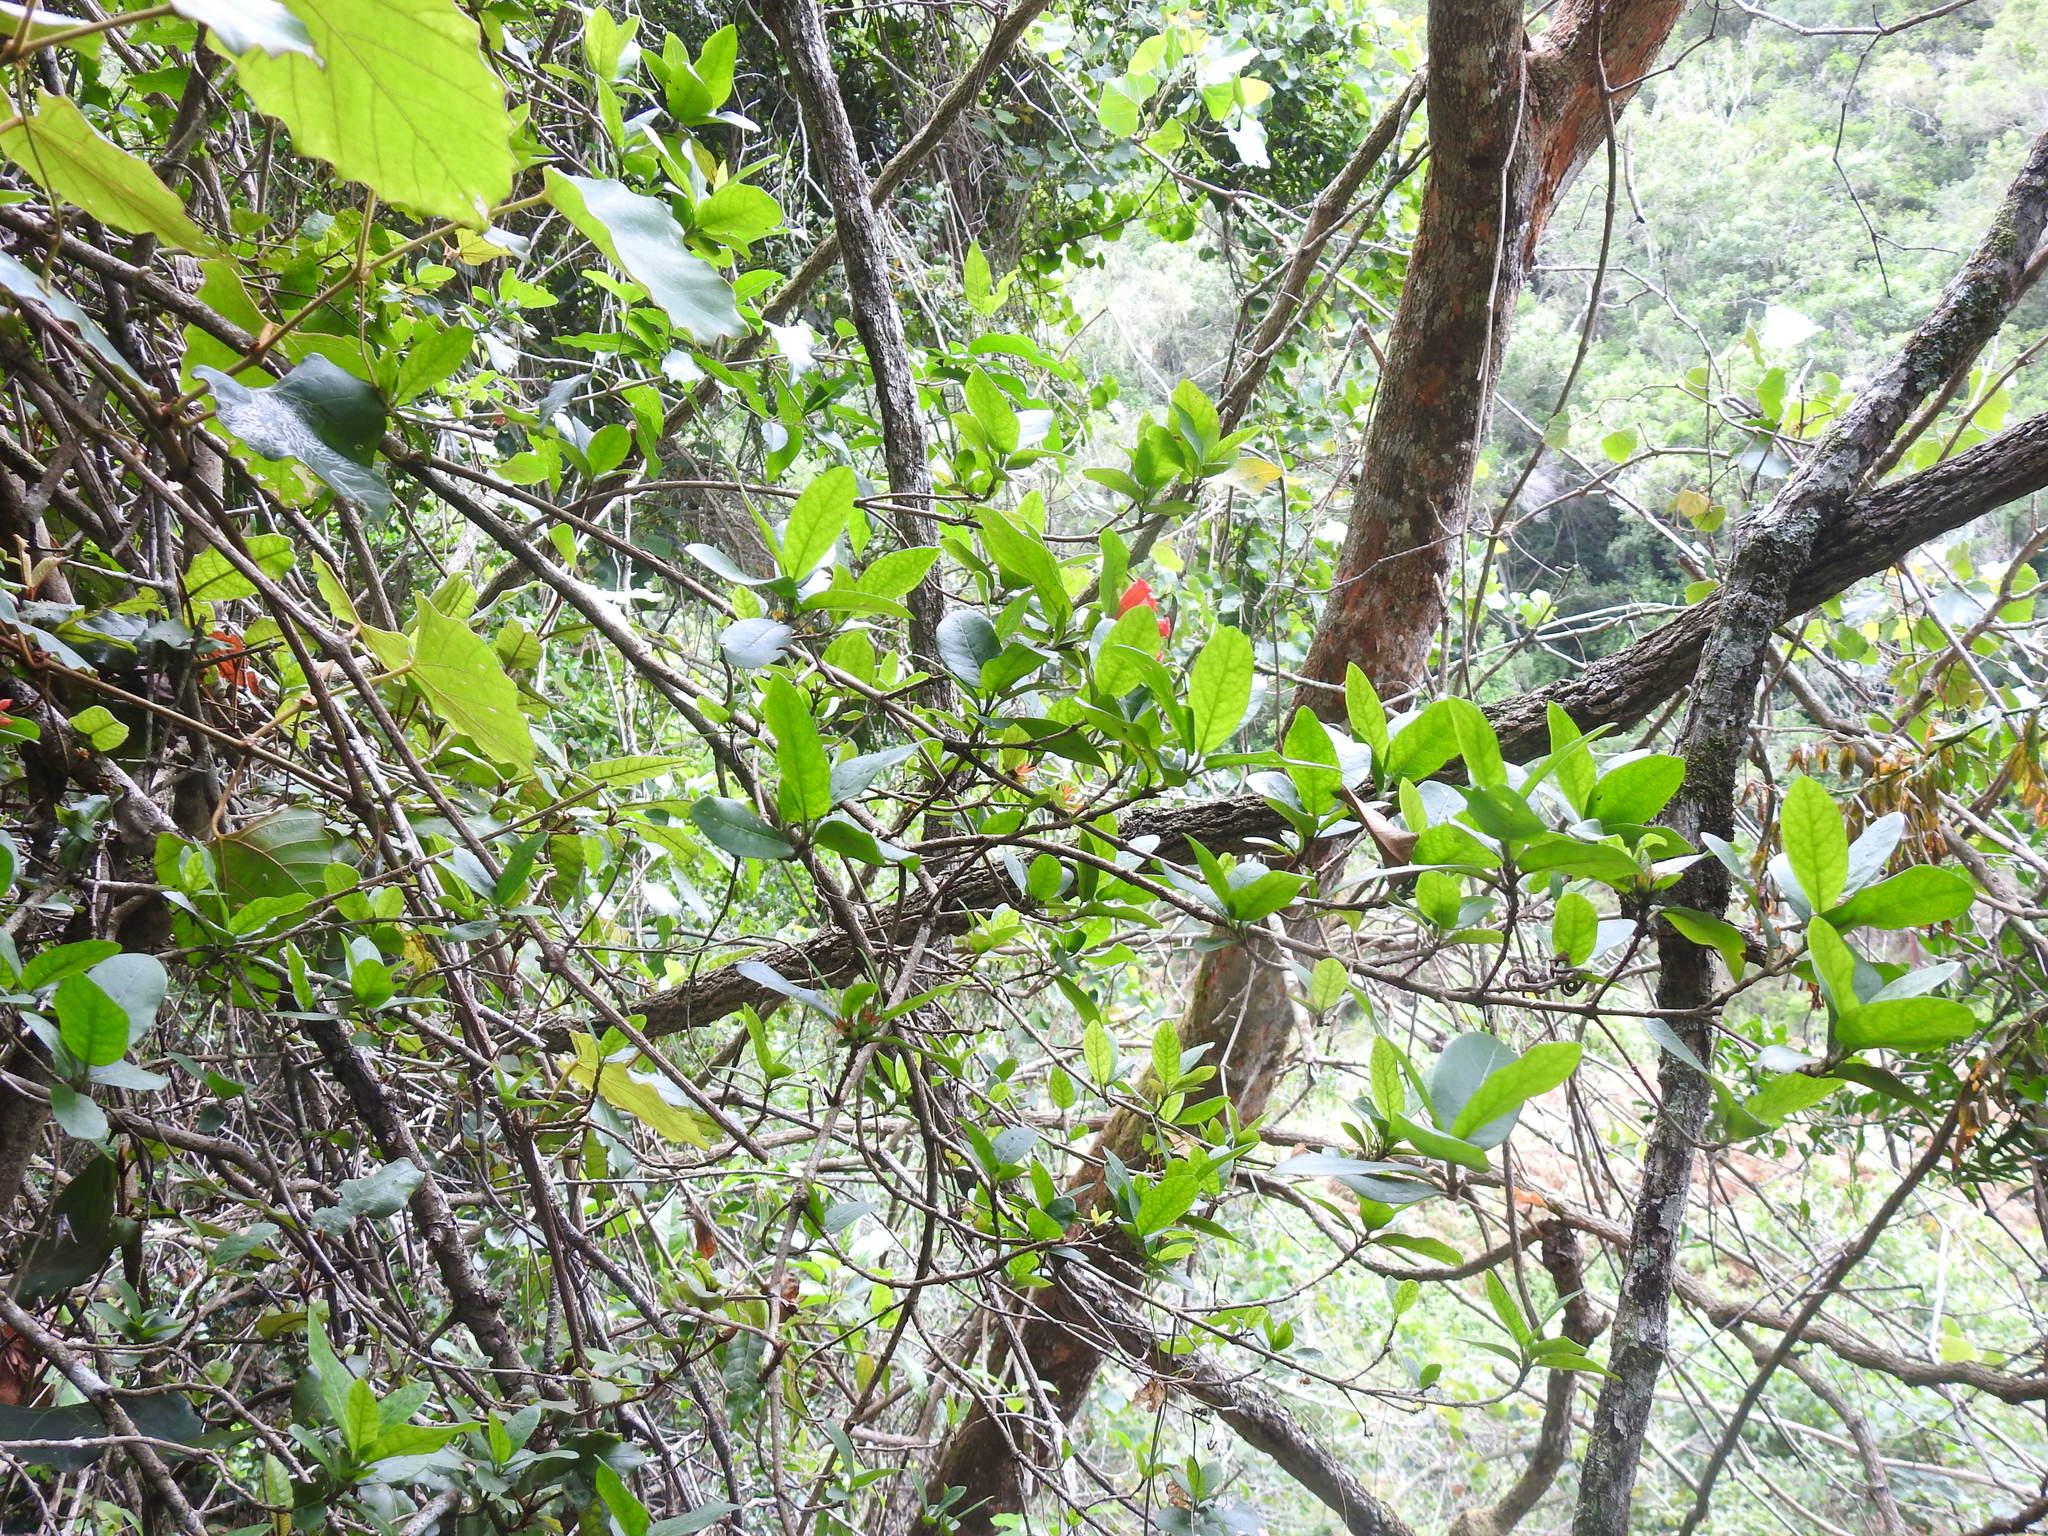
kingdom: Plantae
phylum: Tracheophyta
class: Magnoliopsida
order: Gentianales
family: Rubiaceae
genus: Burchellia
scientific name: Burchellia bubalina
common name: Wild pomegranate
